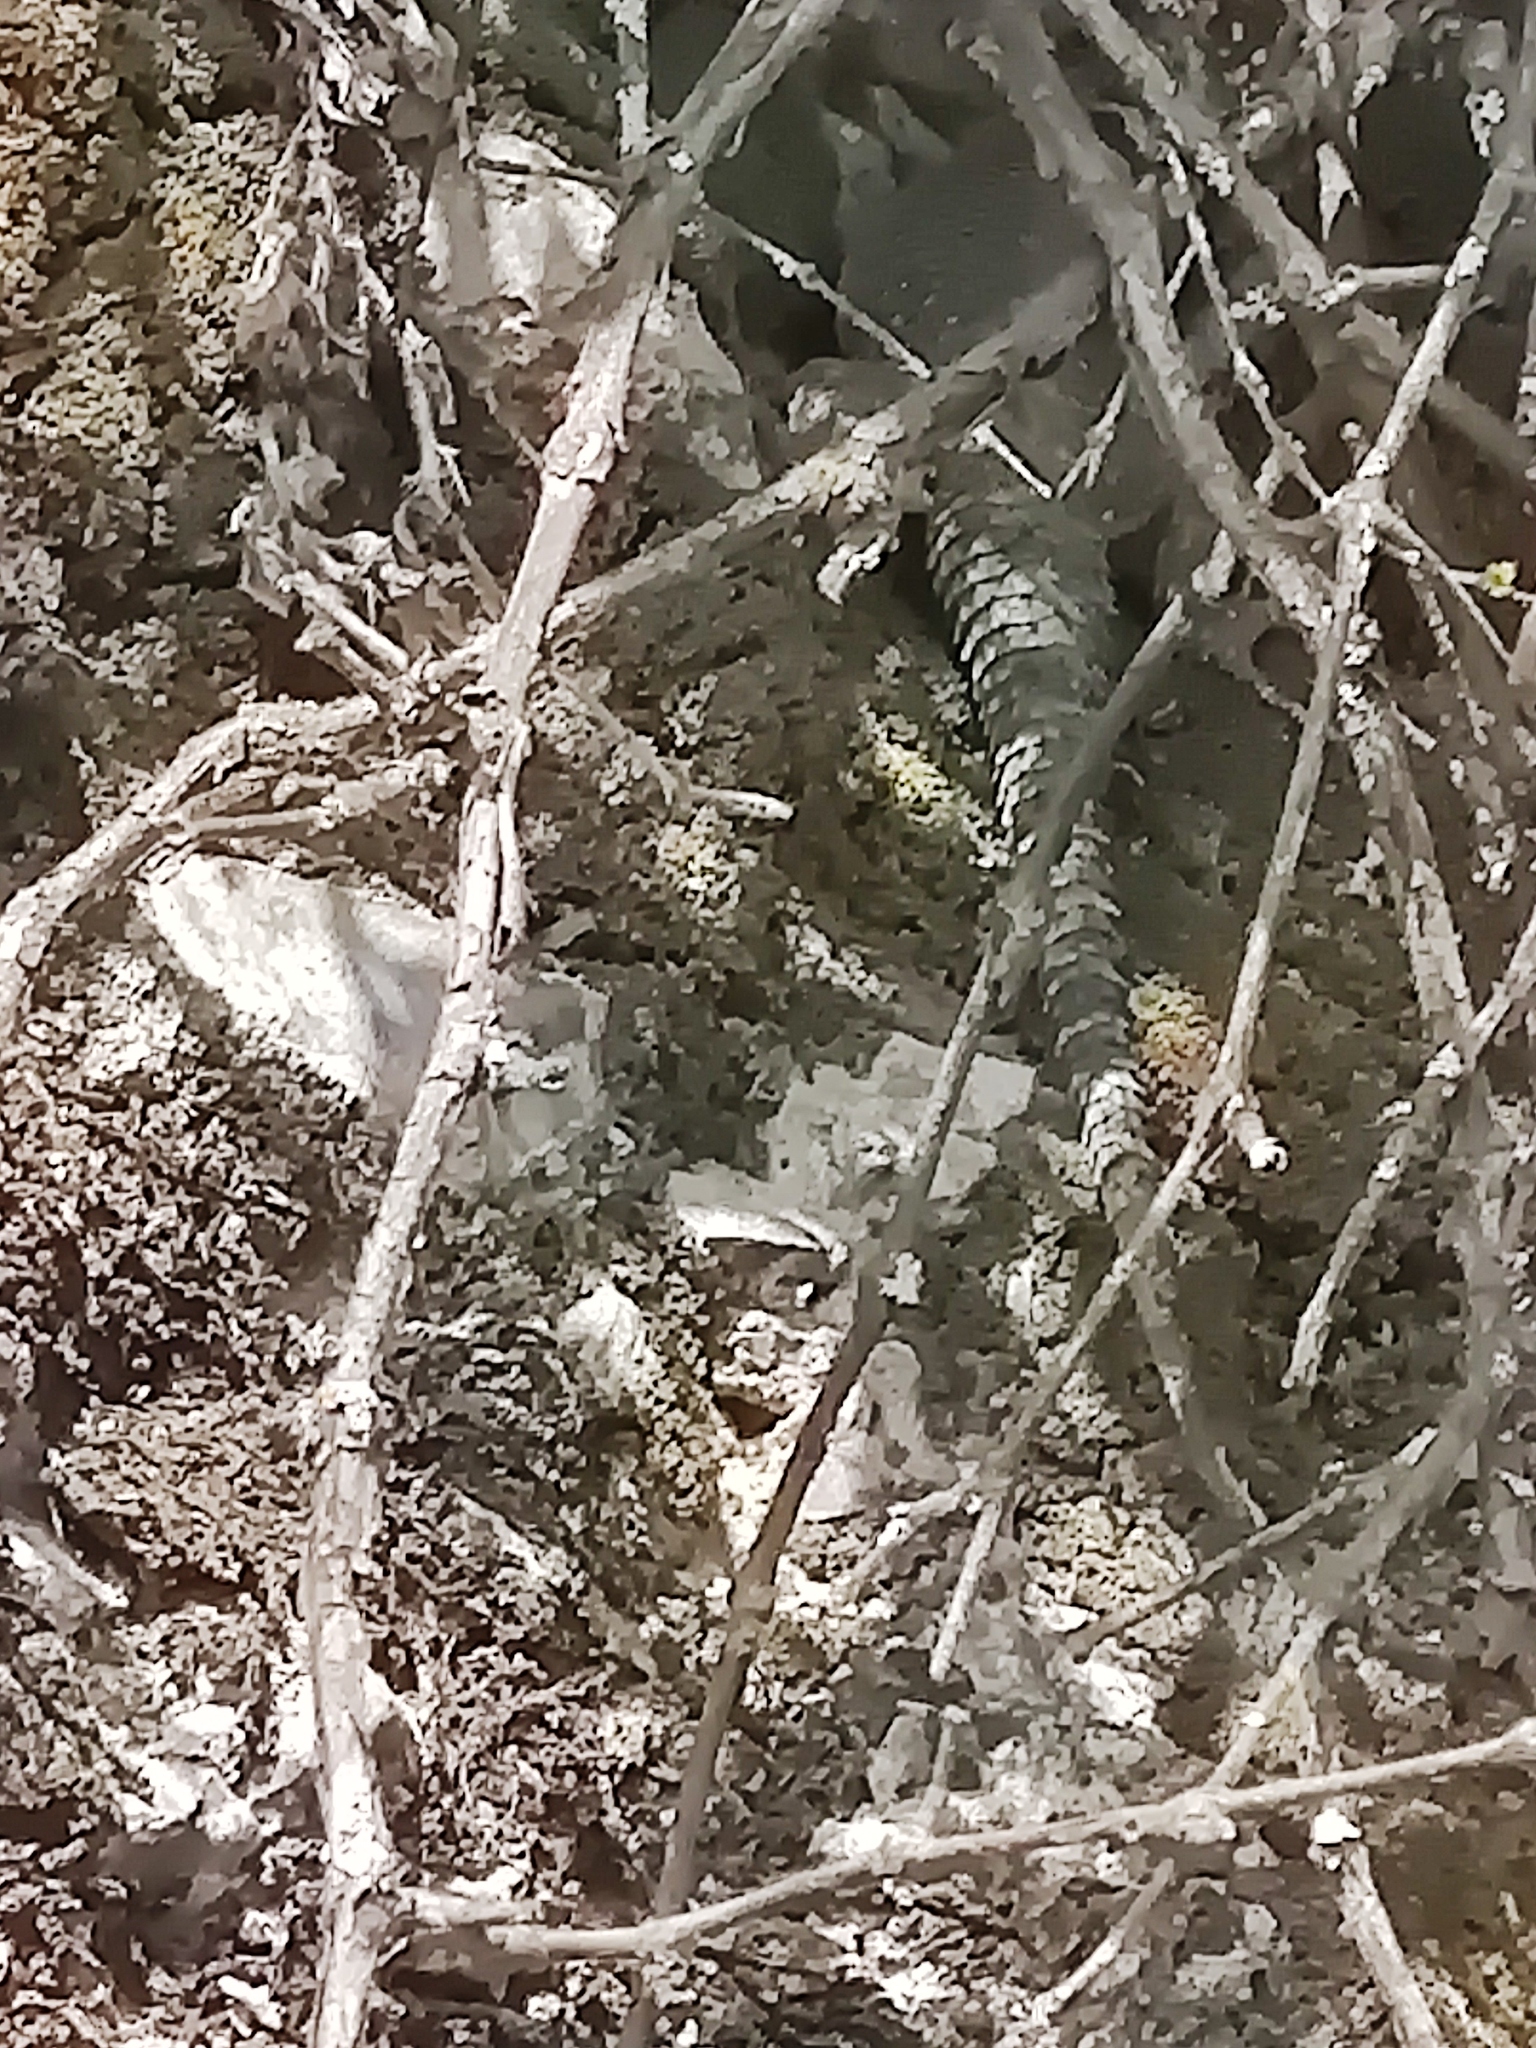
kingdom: Animalia
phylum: Chordata
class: Squamata
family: Phrynosomatidae
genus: Sceloporus
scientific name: Sceloporus cyanogenys
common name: Blue spiny lizard
